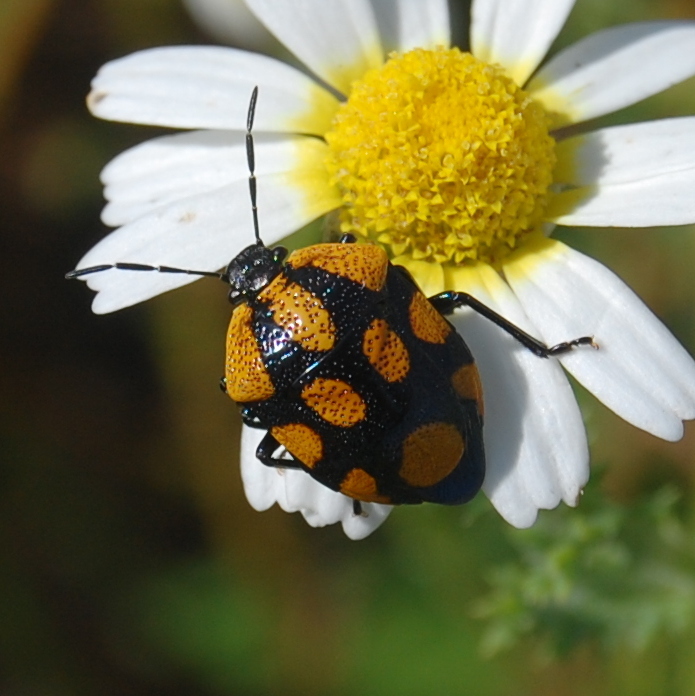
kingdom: Animalia
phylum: Arthropoda
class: Insecta
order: Hemiptera
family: Pentatomidae
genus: Stiretrus
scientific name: Stiretrus
